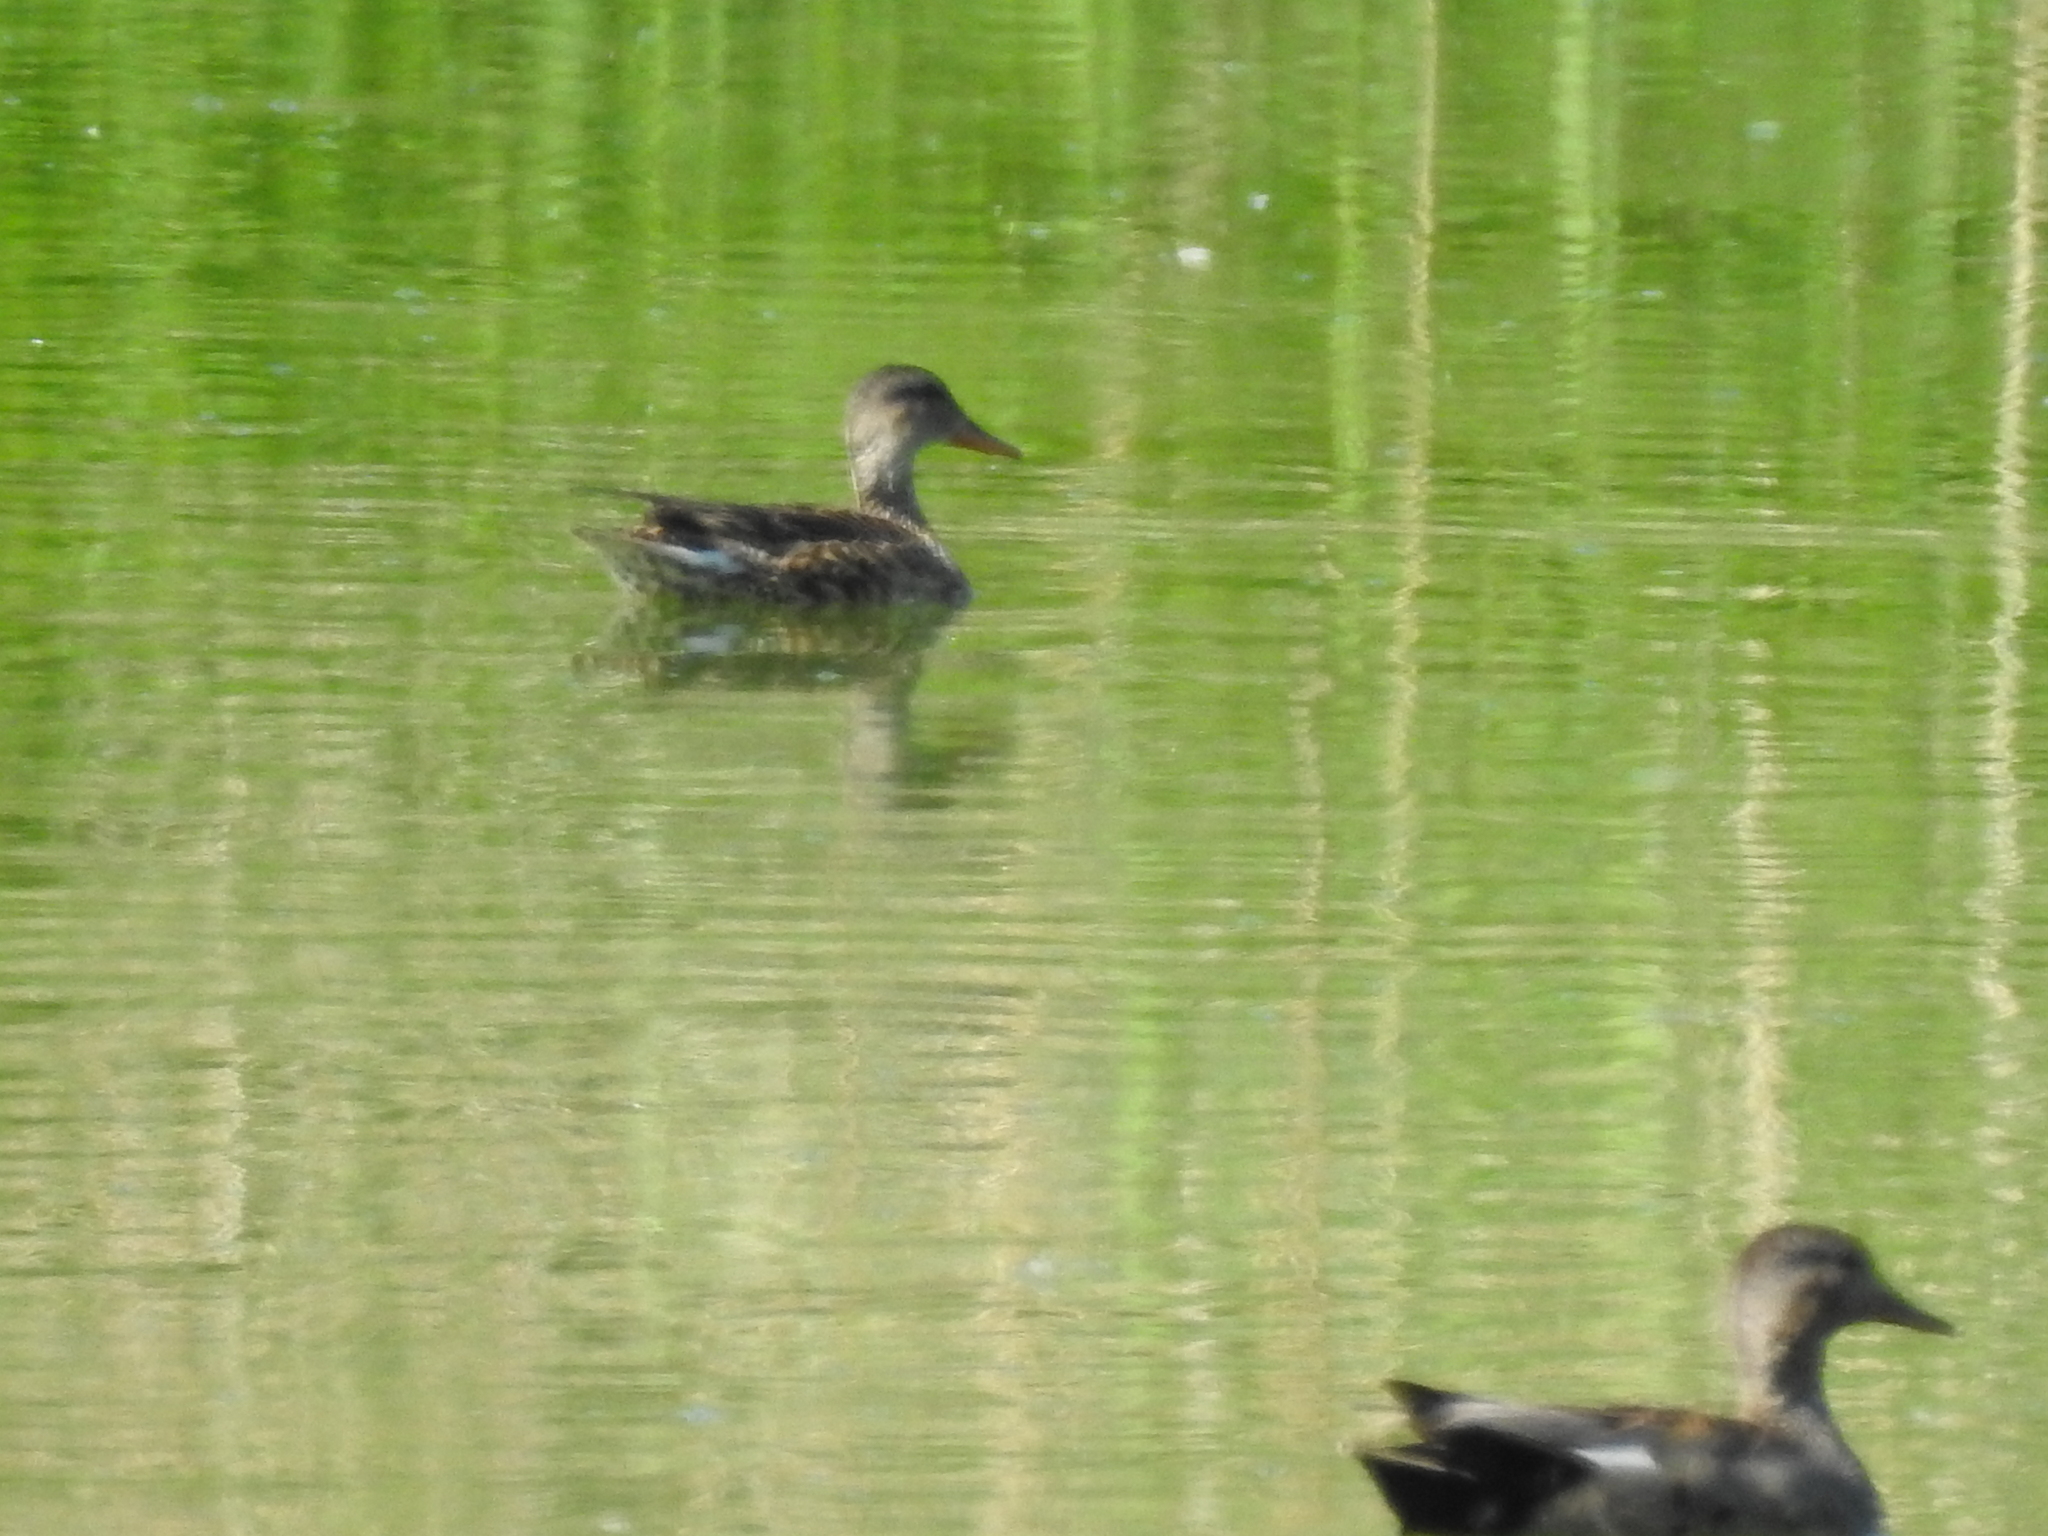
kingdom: Animalia
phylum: Chordata
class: Aves
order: Anseriformes
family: Anatidae
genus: Mareca
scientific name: Mareca strepera
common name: Gadwall
